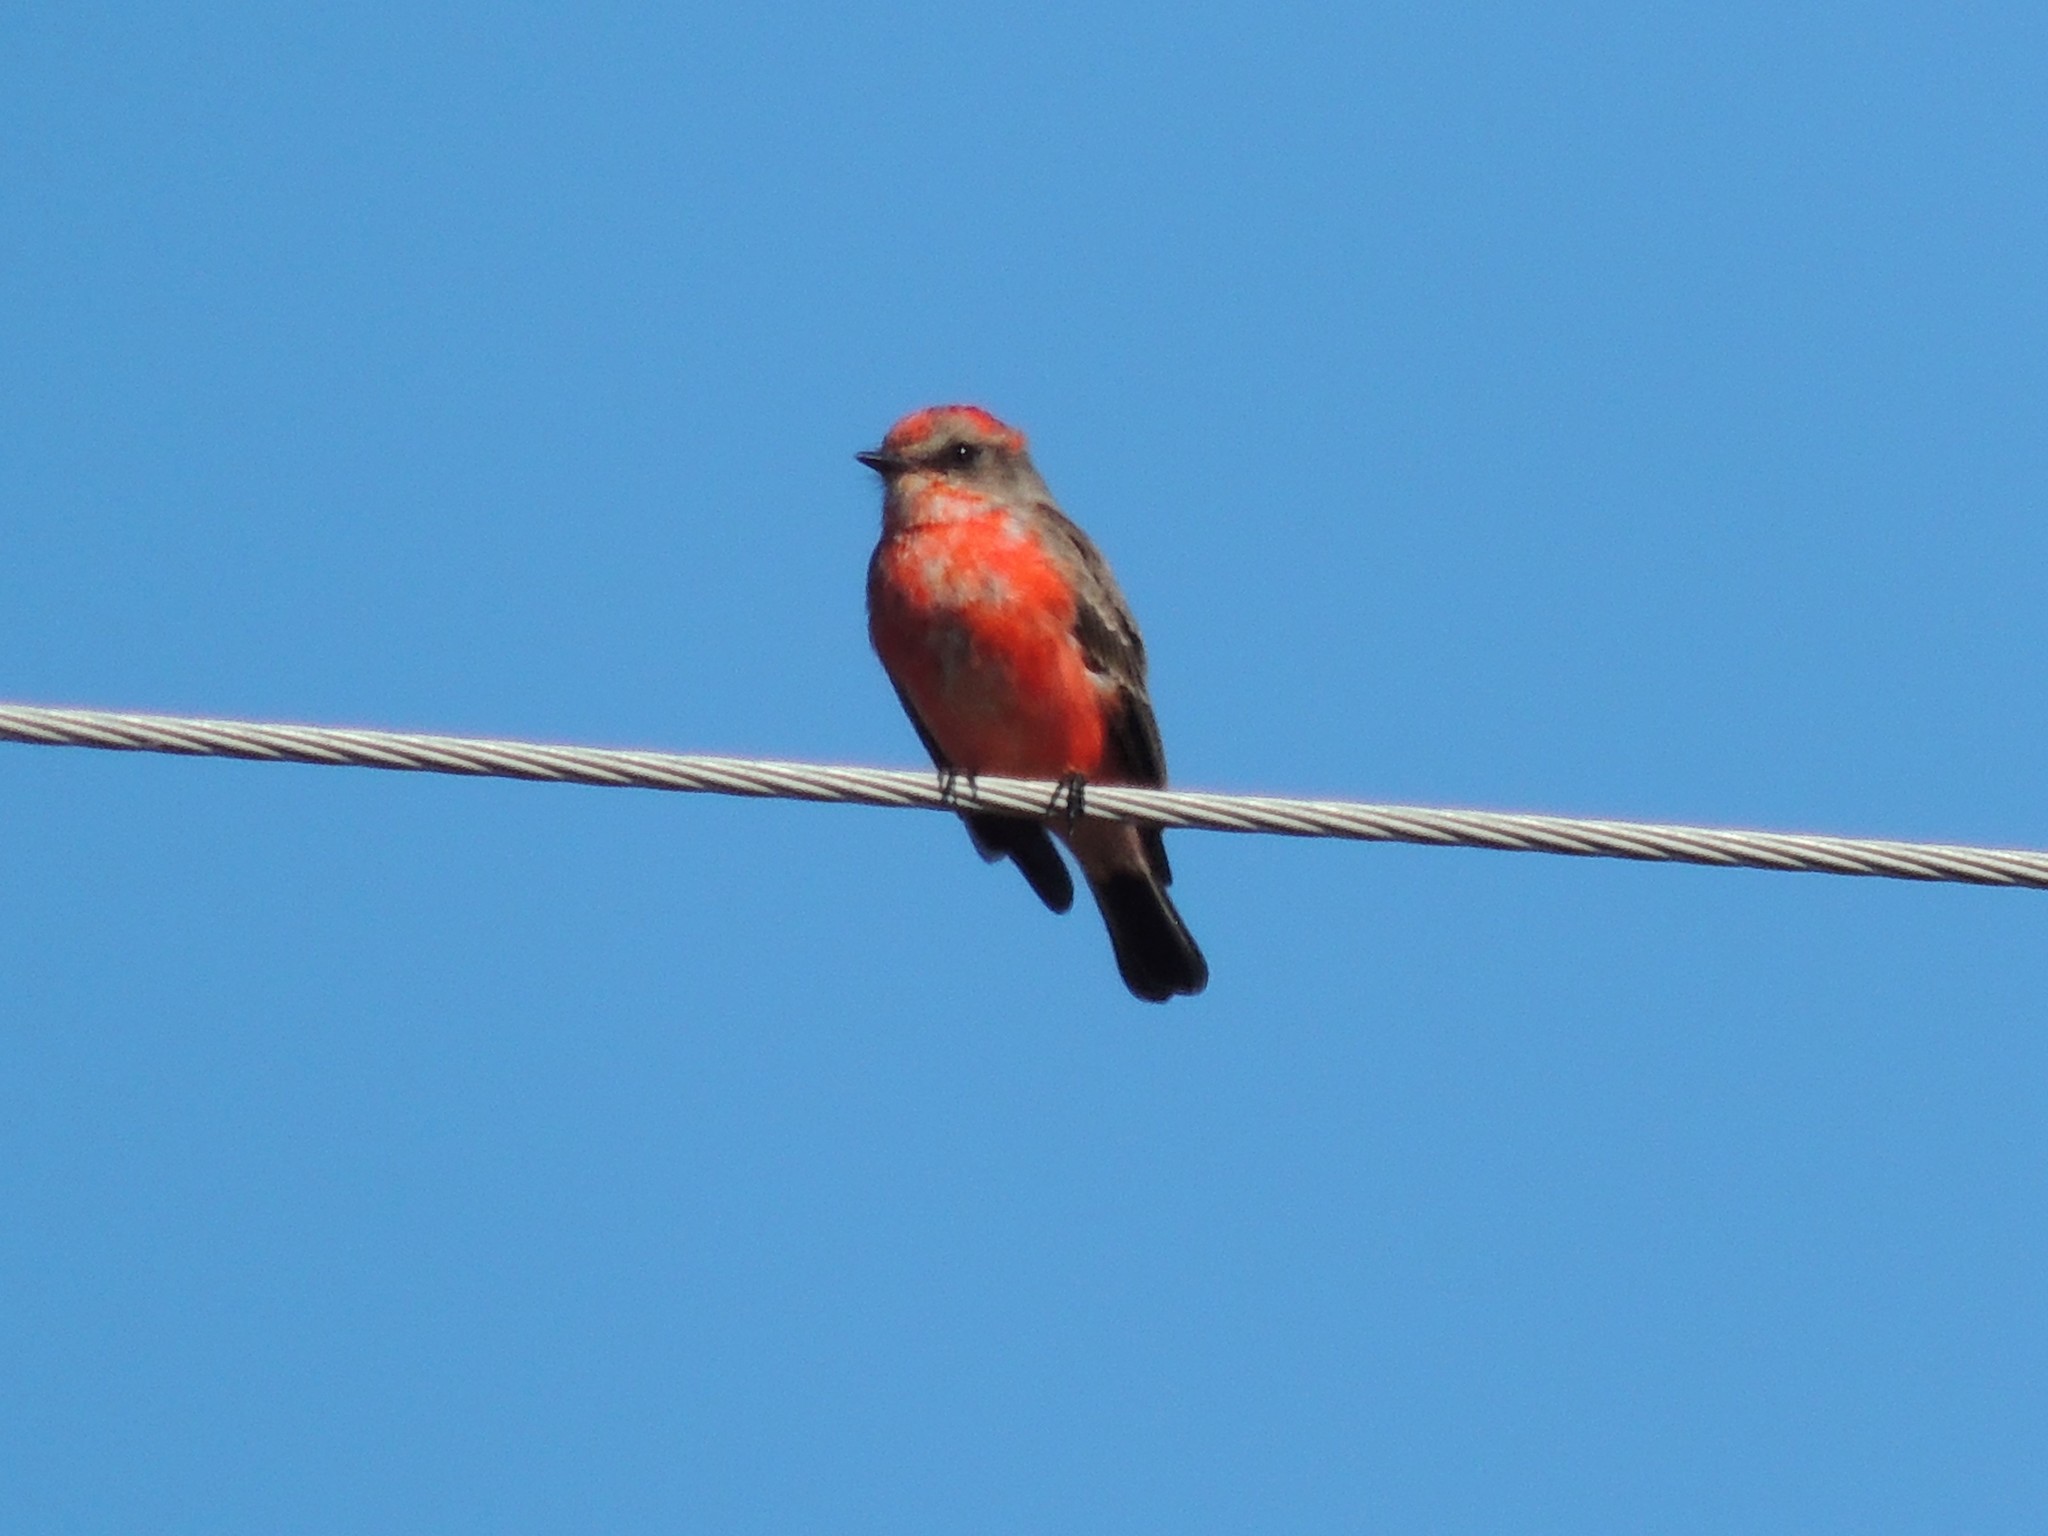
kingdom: Animalia
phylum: Chordata
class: Aves
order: Passeriformes
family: Tyrannidae
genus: Pyrocephalus
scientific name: Pyrocephalus rubinus
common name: Vermilion flycatcher
